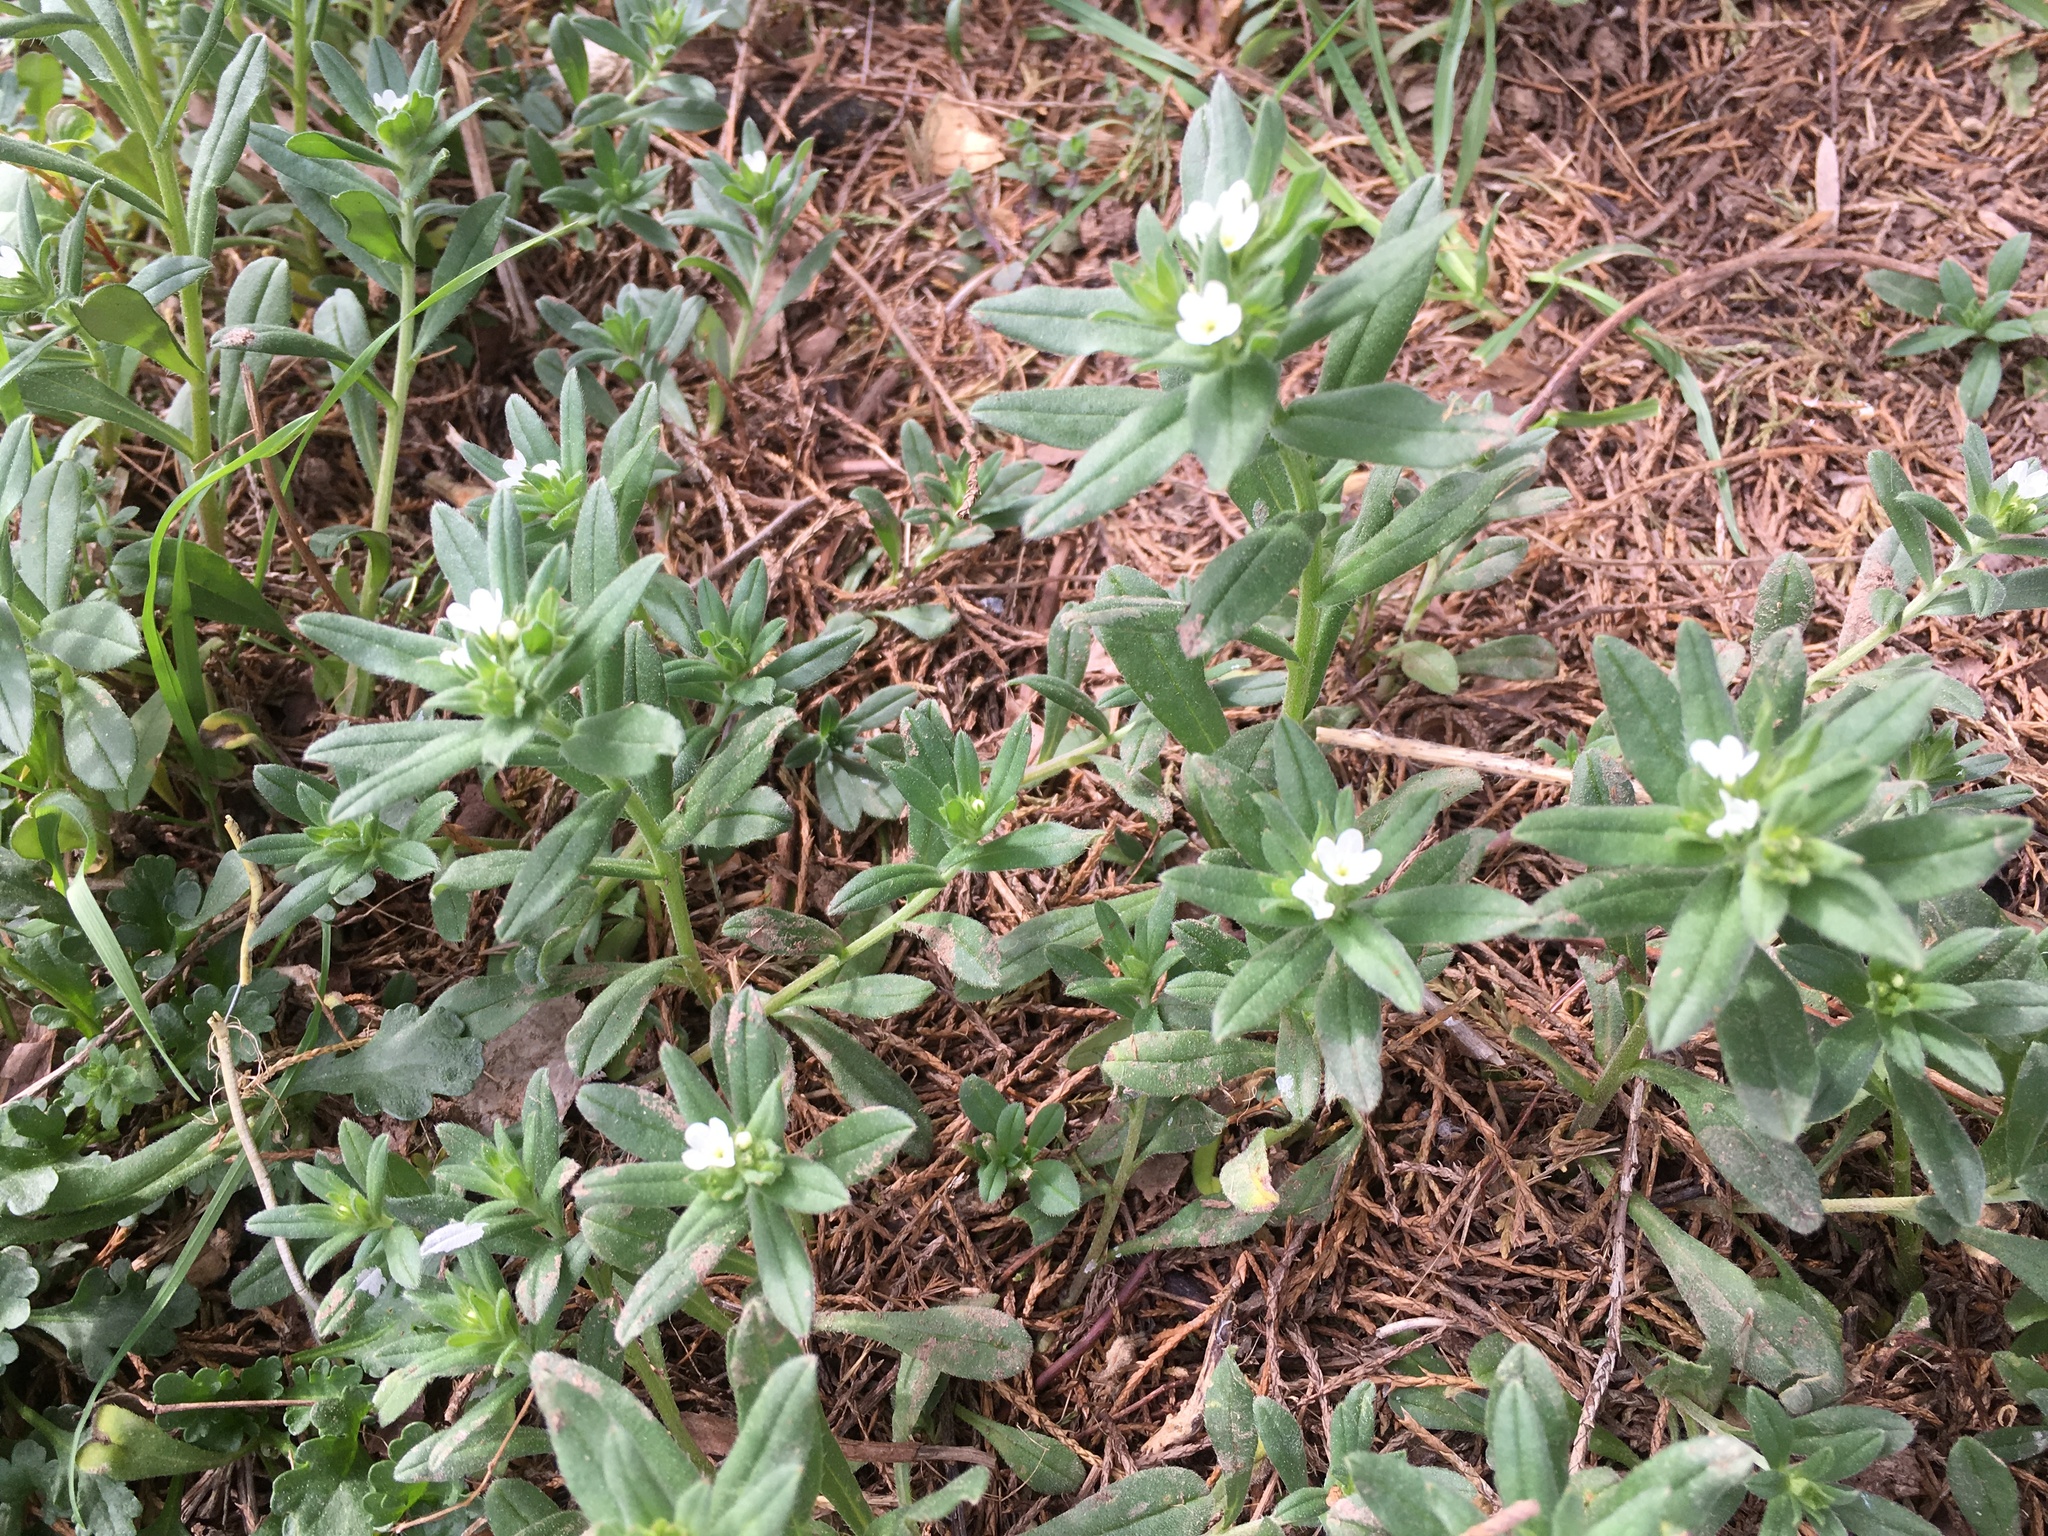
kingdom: Plantae
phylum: Tracheophyta
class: Magnoliopsida
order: Boraginales
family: Boraginaceae
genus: Buglossoides
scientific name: Buglossoides arvensis
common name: Corn gromwell
